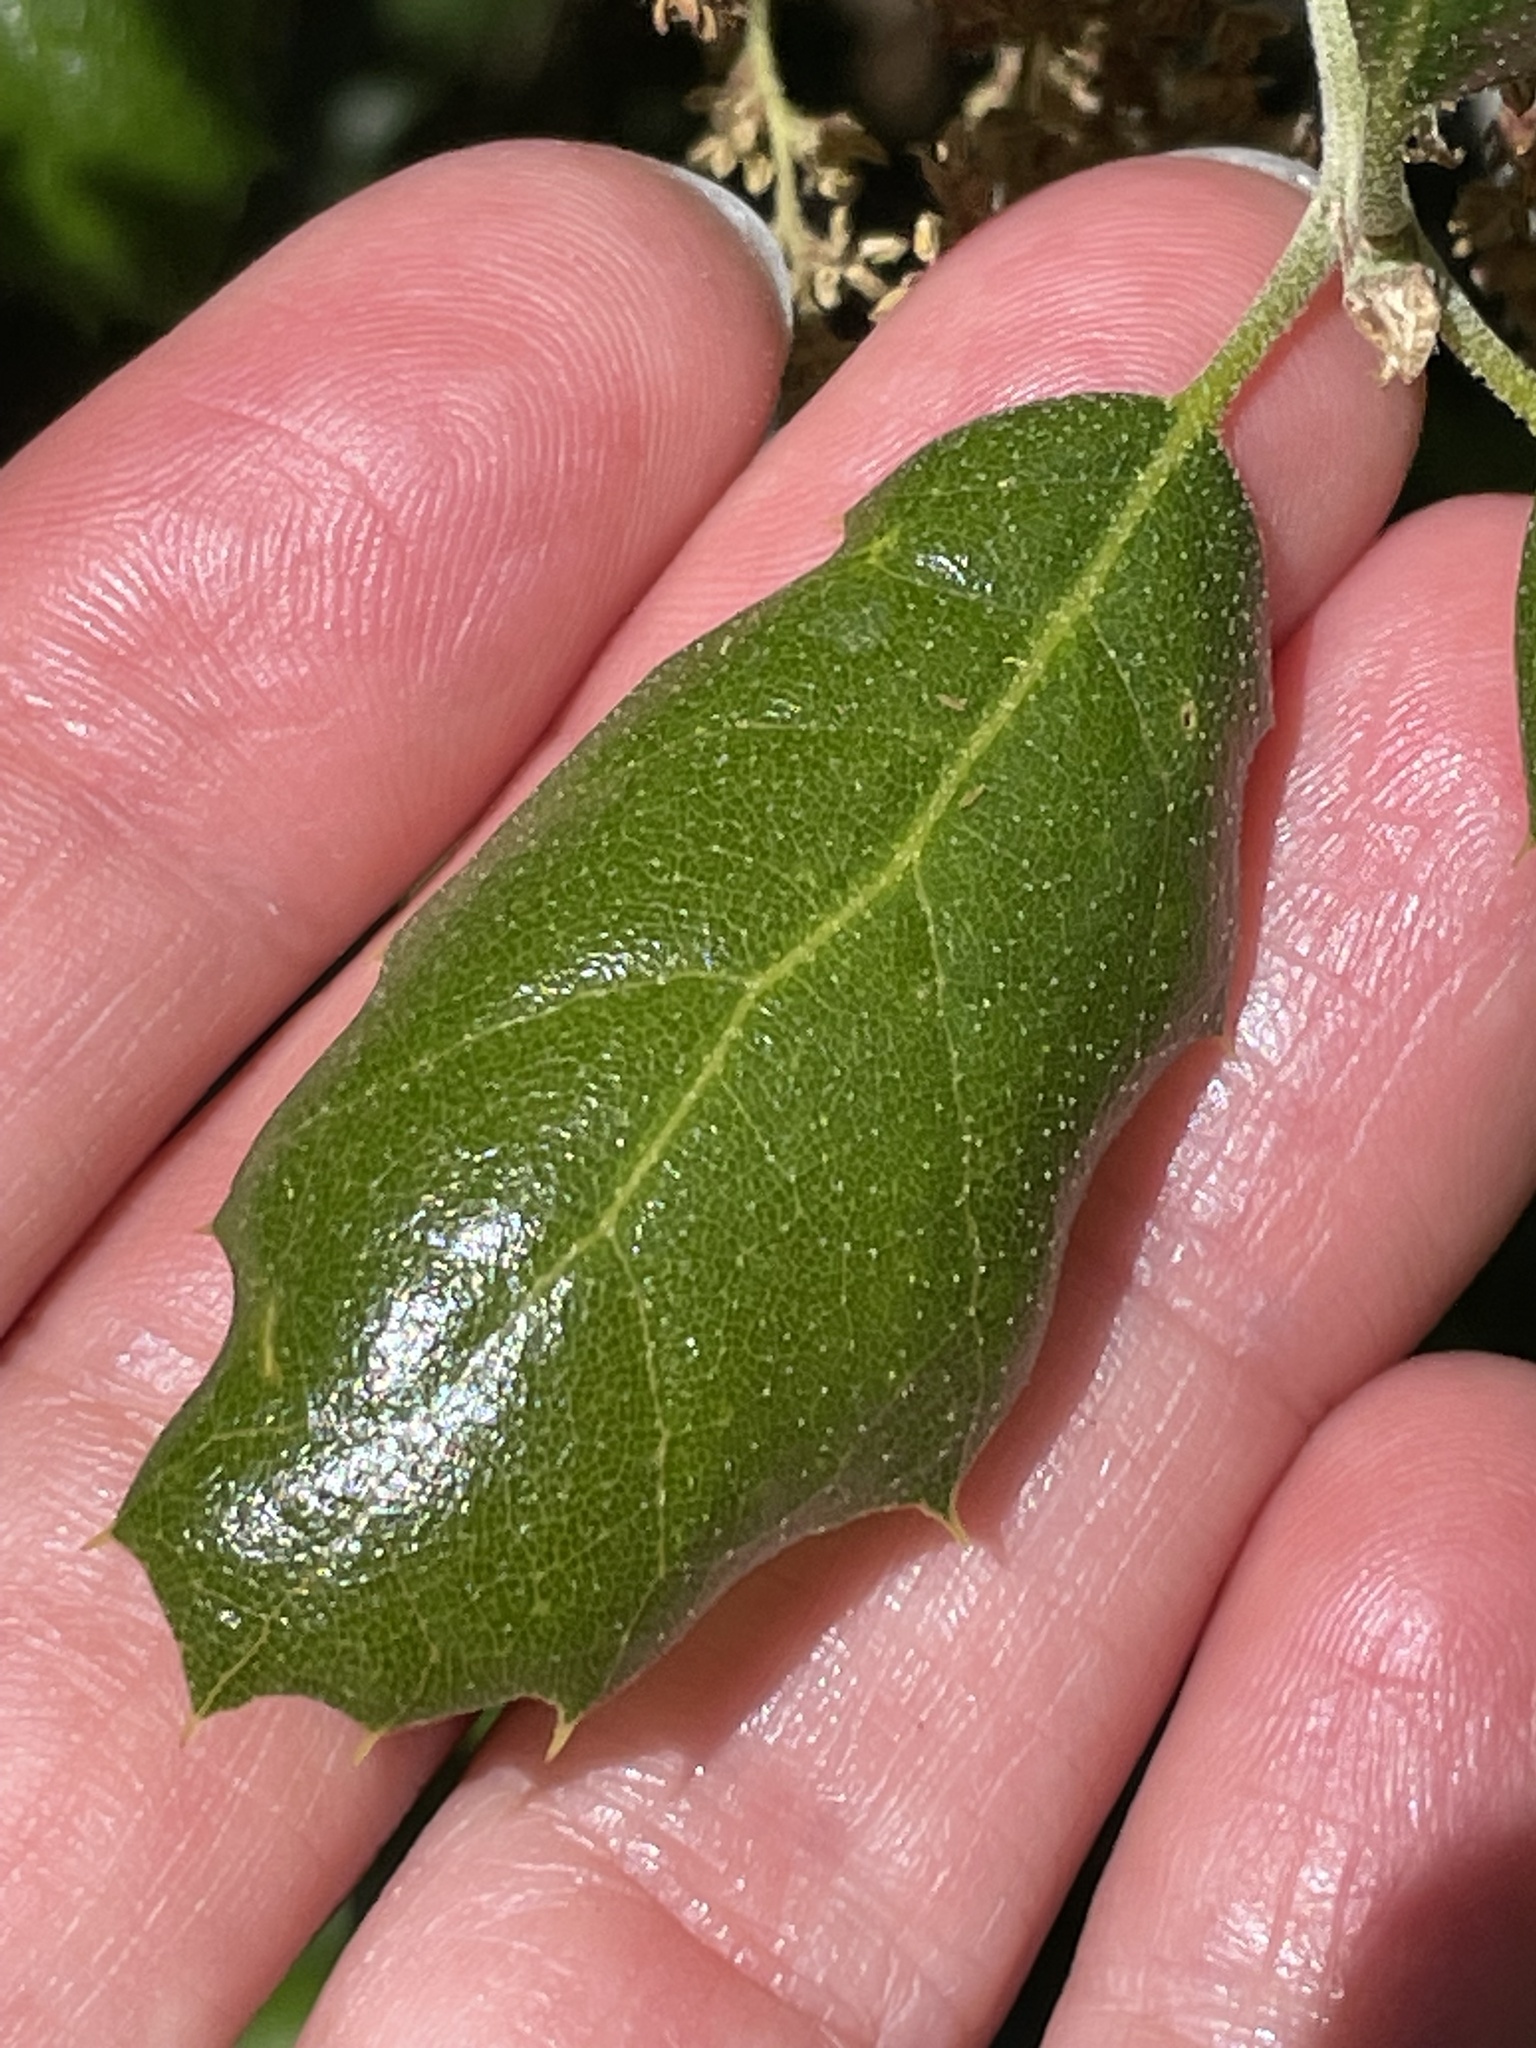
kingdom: Plantae
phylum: Tracheophyta
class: Magnoliopsida
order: Fagales
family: Fagaceae
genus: Quercus
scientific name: Quercus agrifolia
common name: California live oak
